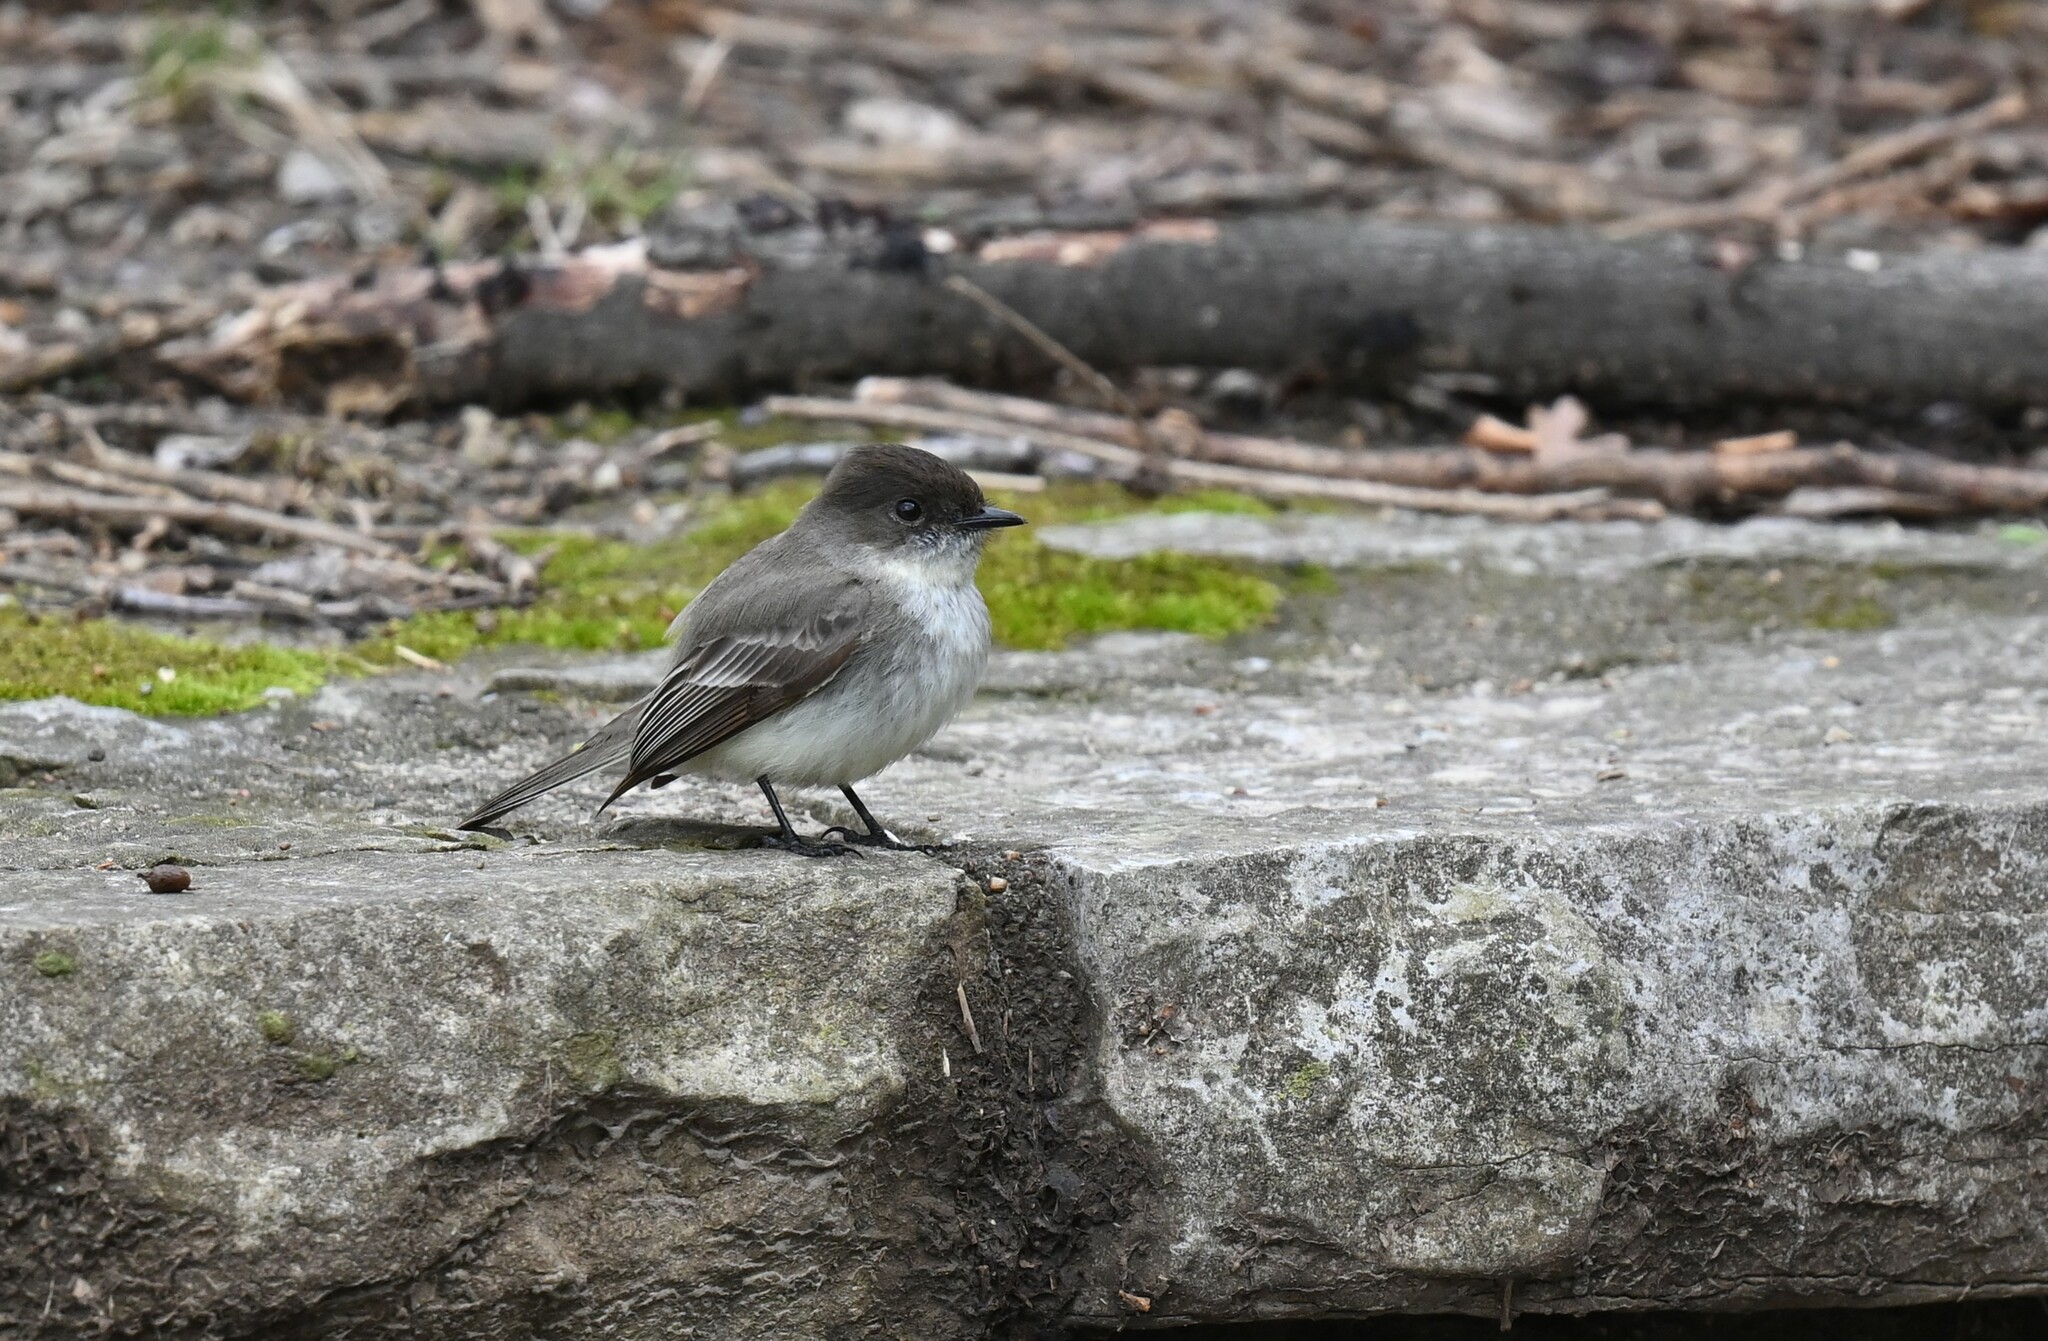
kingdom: Animalia
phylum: Chordata
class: Aves
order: Passeriformes
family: Tyrannidae
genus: Sayornis
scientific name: Sayornis phoebe
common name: Eastern phoebe
